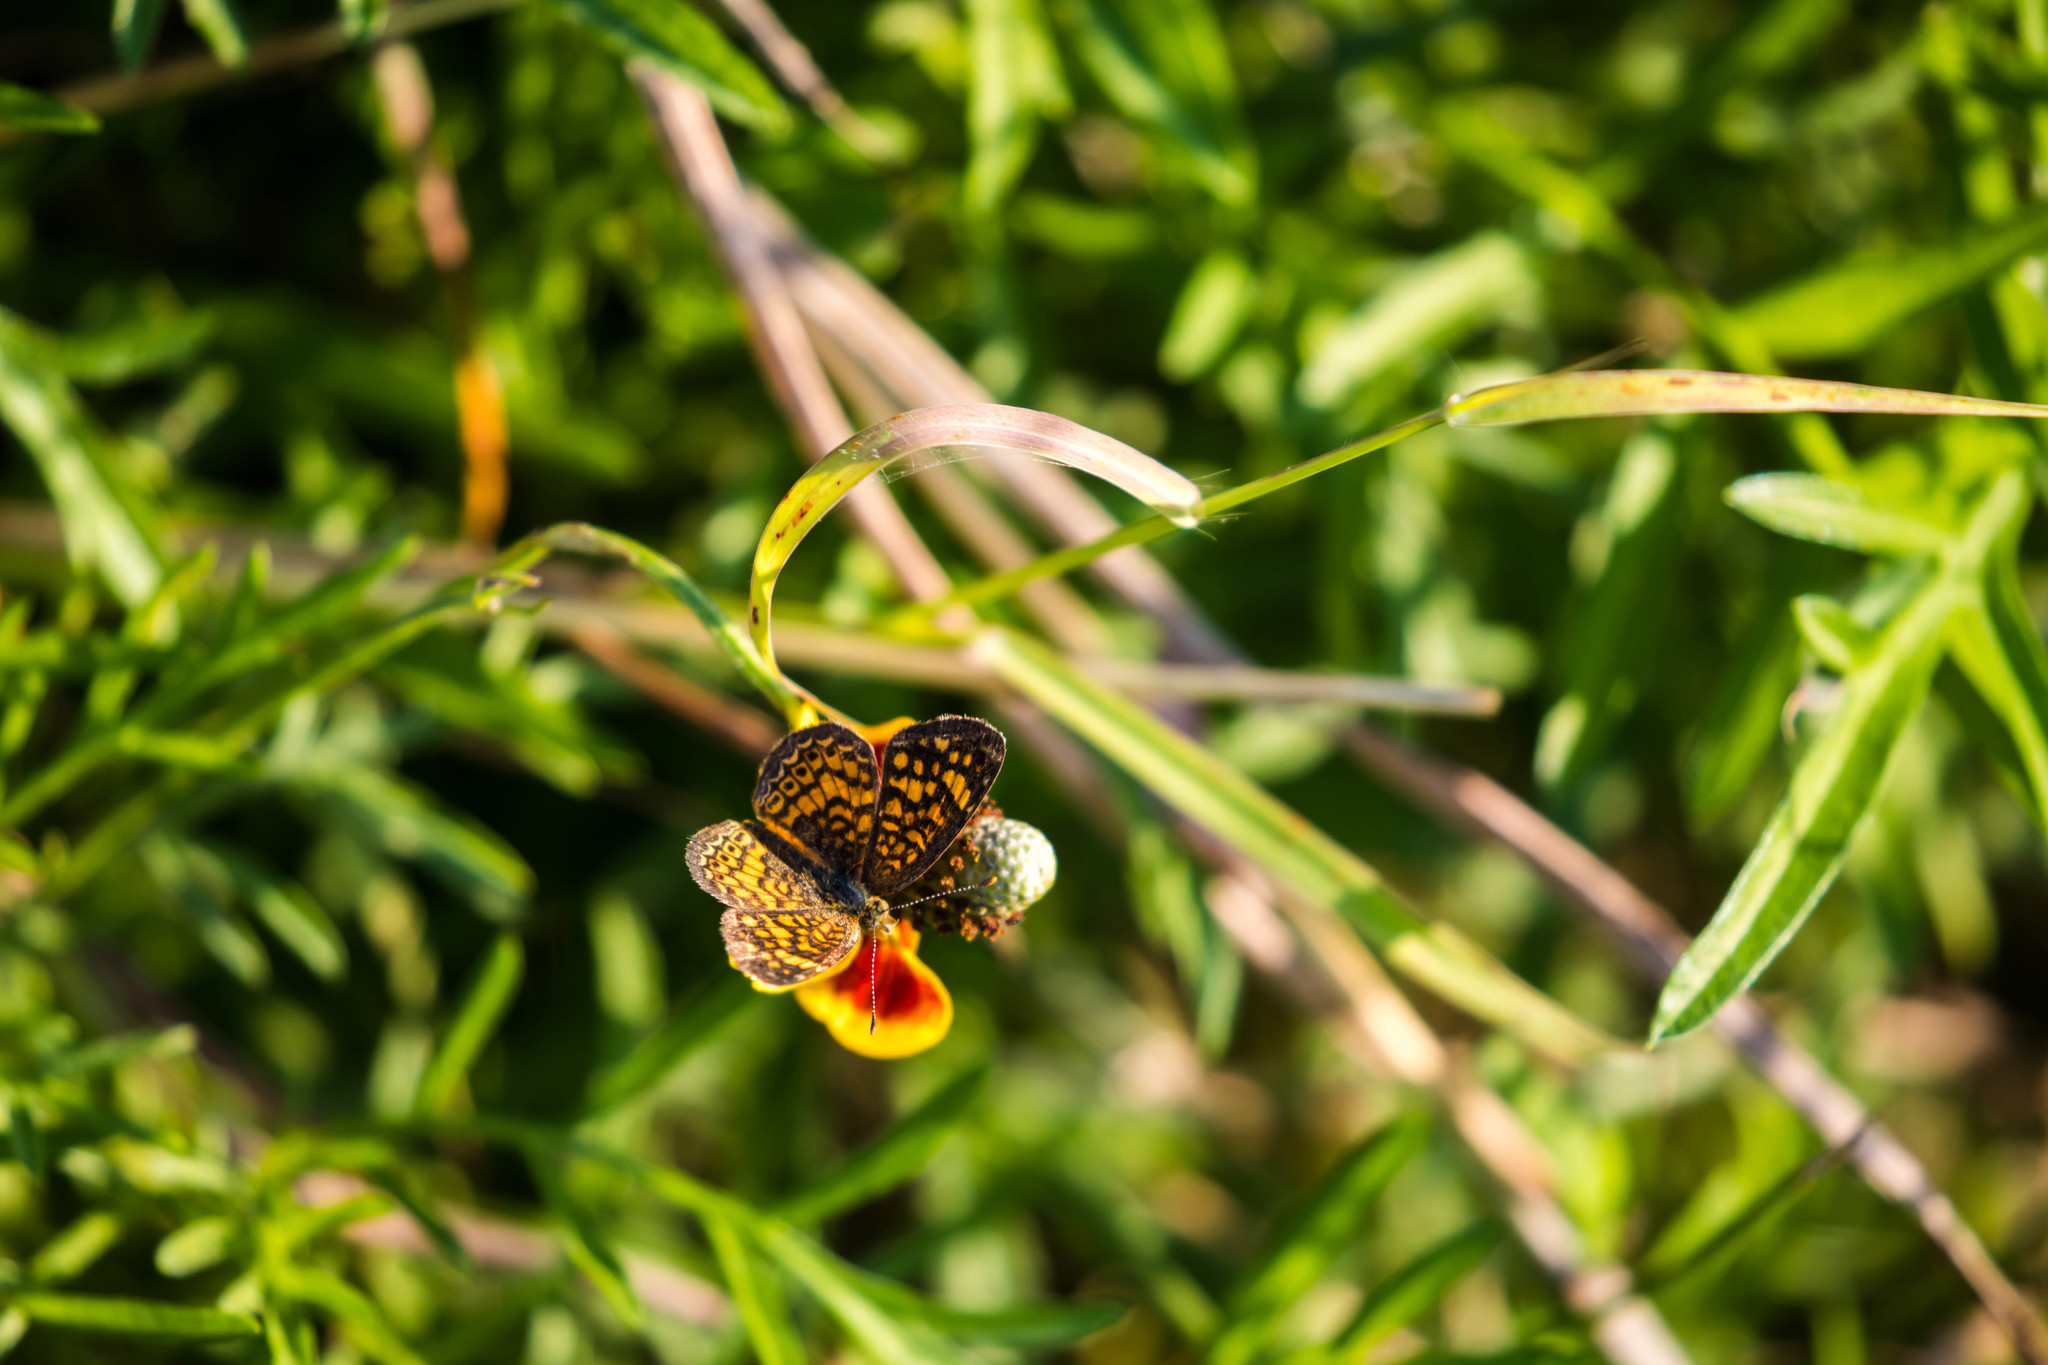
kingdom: Animalia
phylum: Arthropoda
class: Insecta
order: Lepidoptera
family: Nymphalidae
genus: Phyciodes
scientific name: Phyciodes vesta
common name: Vesta crescent
